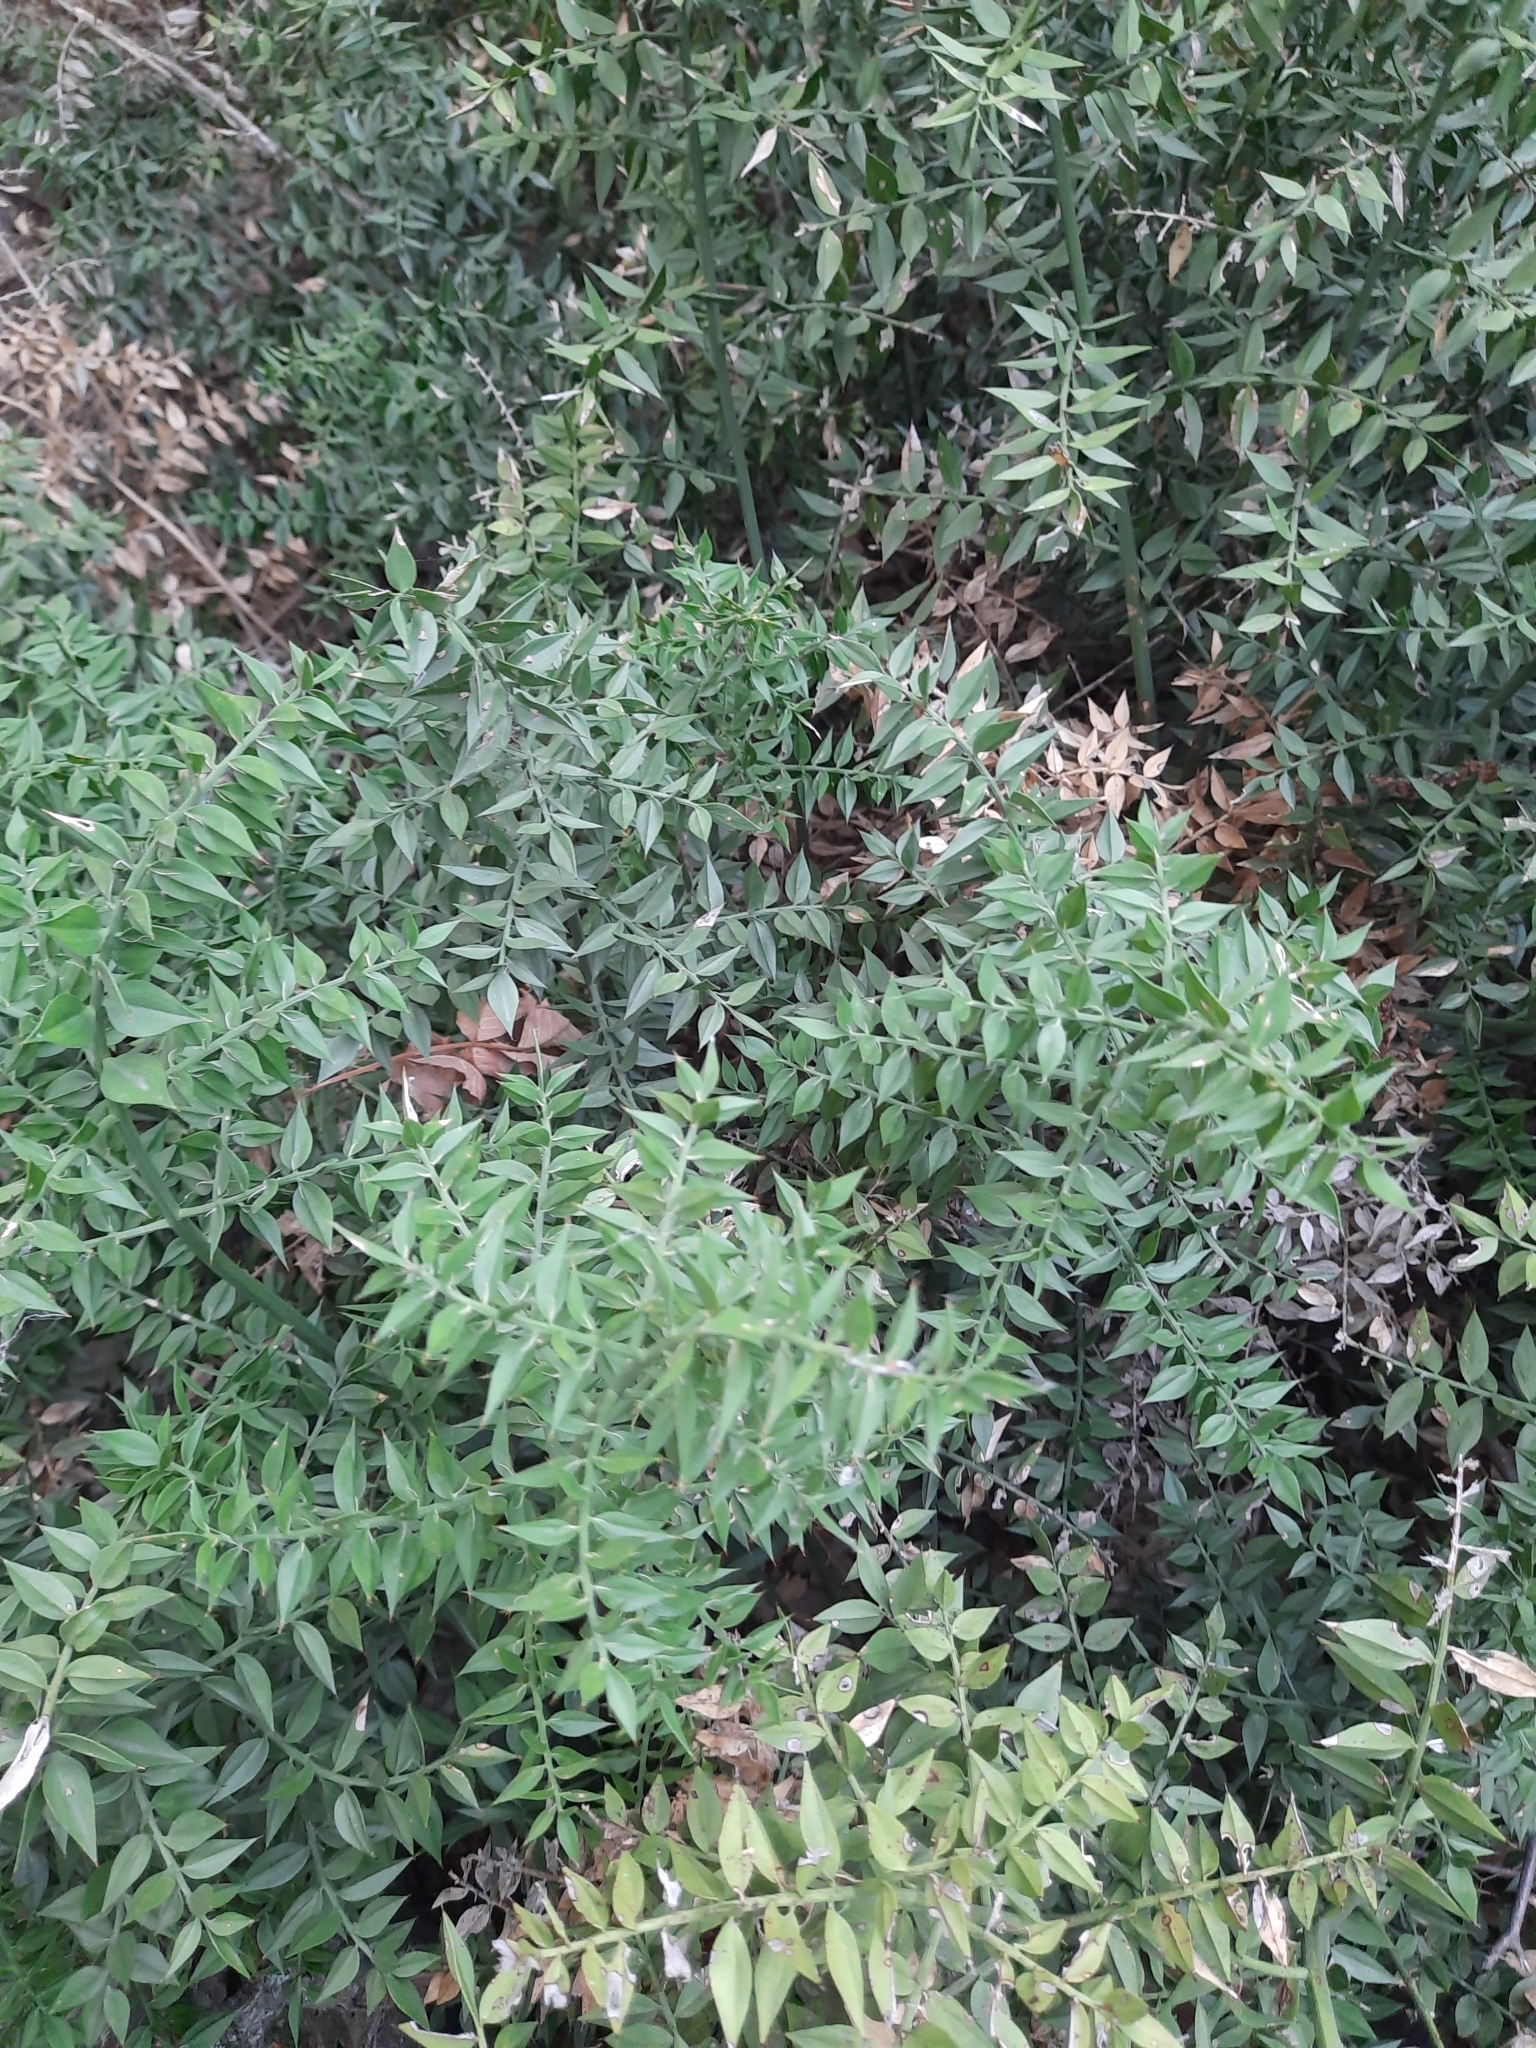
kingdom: Plantae
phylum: Tracheophyta
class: Liliopsida
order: Asparagales
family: Asparagaceae
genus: Ruscus
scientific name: Ruscus aculeatus
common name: Butcher's-broom
